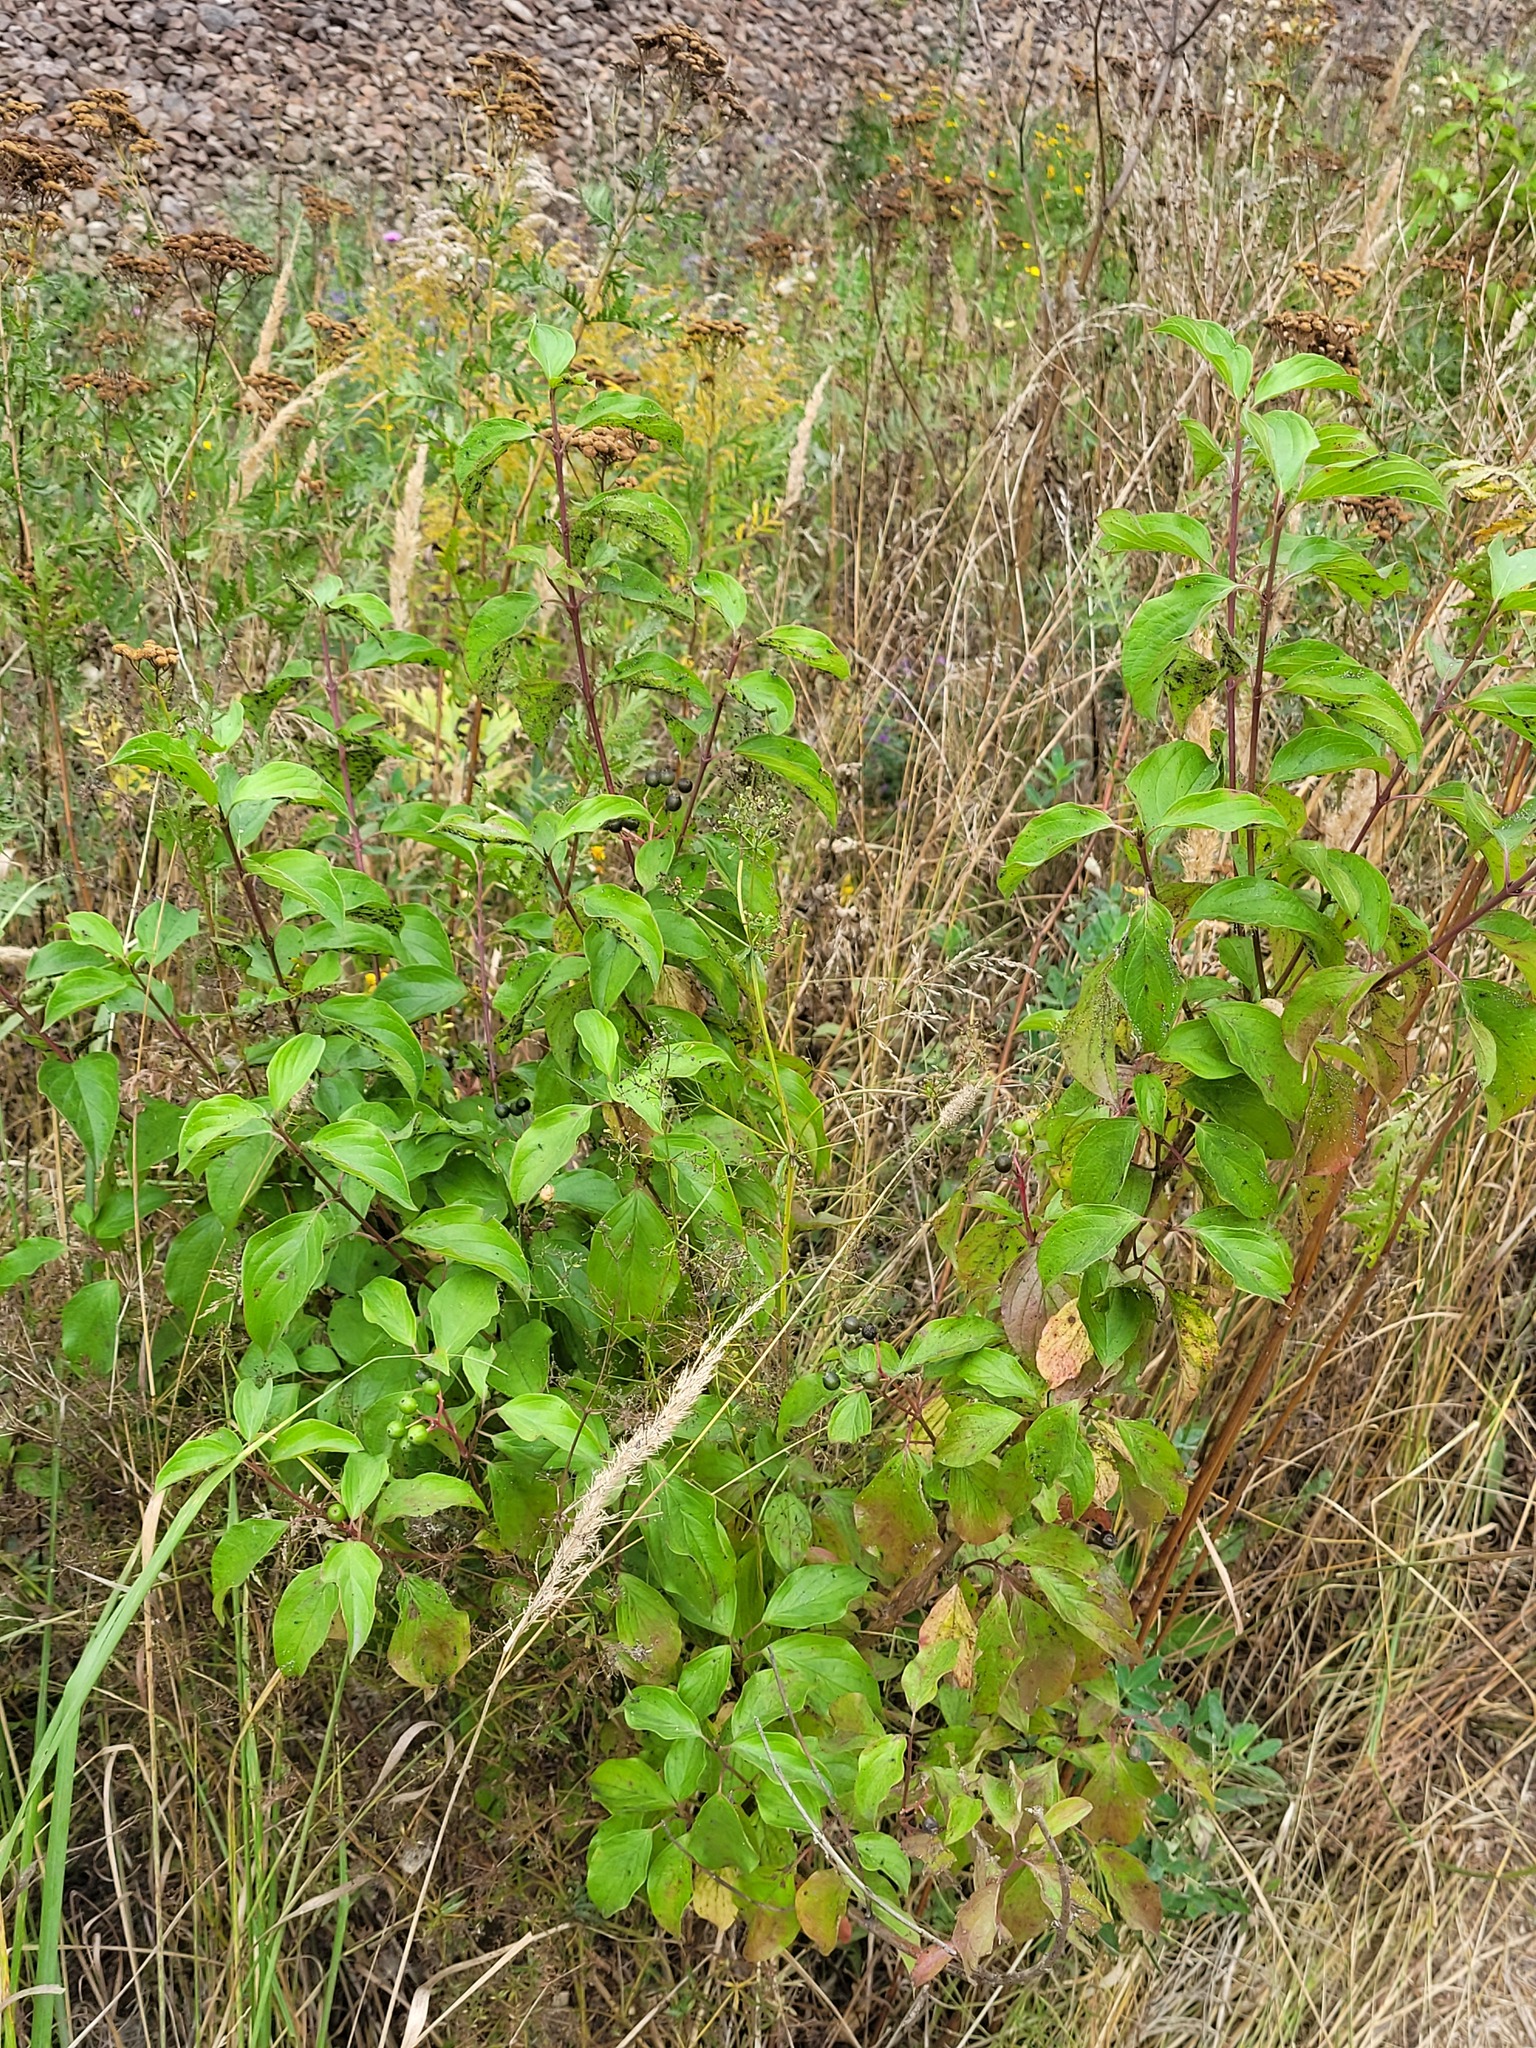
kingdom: Plantae
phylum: Tracheophyta
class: Magnoliopsida
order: Cornales
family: Cornaceae
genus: Cornus
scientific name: Cornus sanguinea
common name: Dogwood
